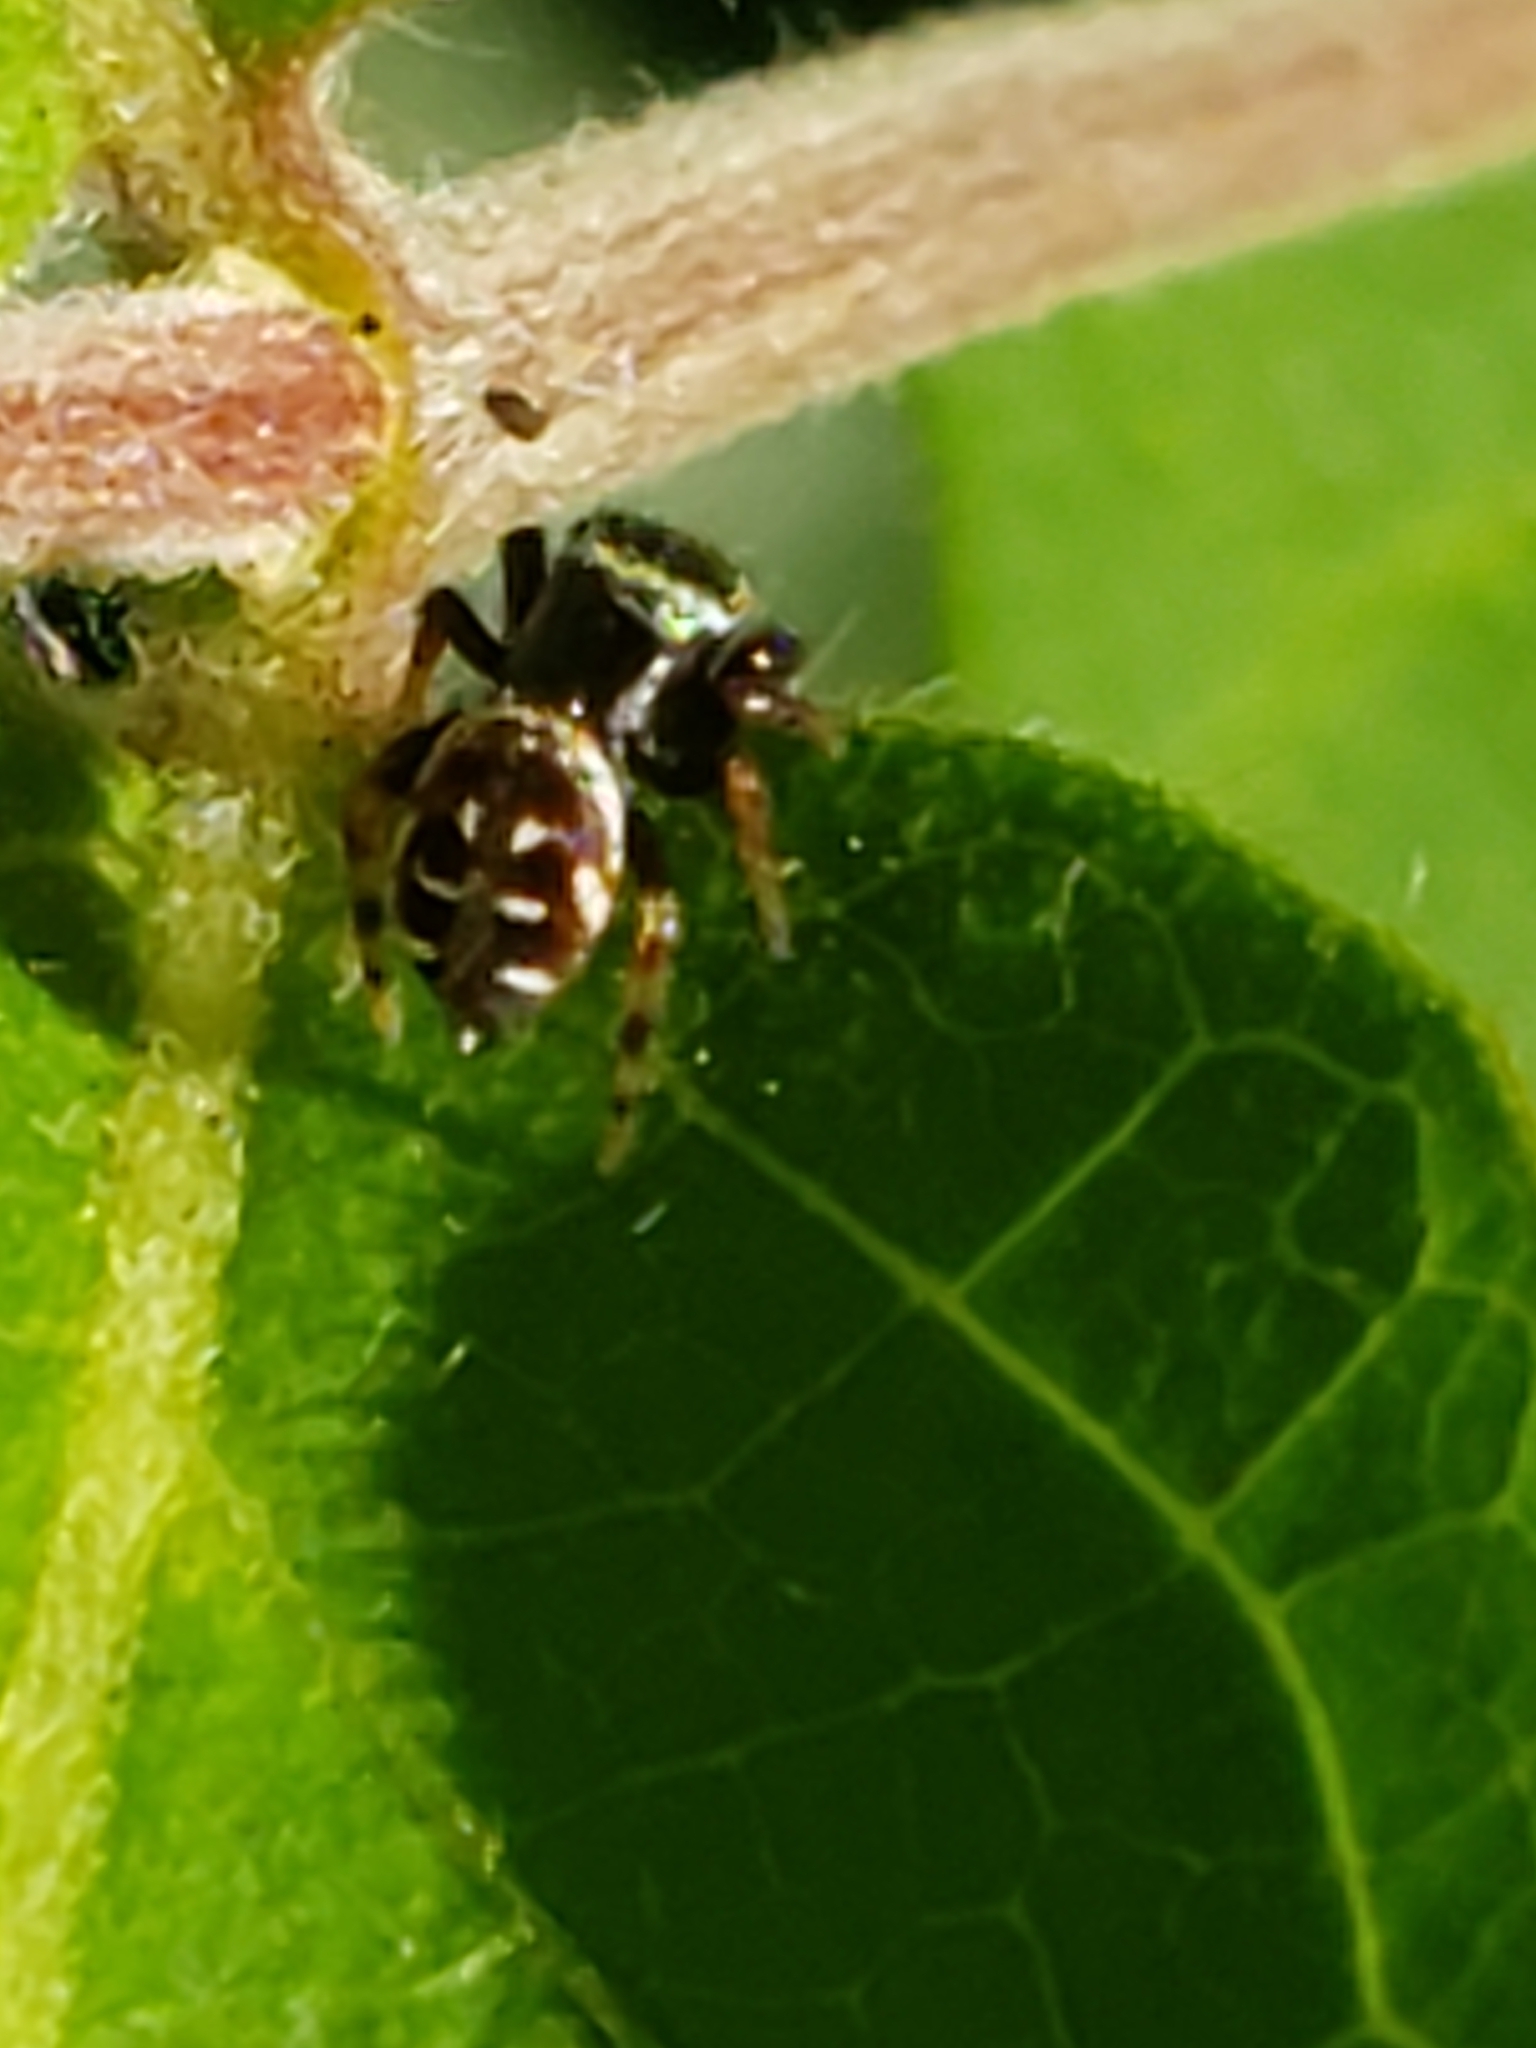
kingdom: Animalia
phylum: Arthropoda
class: Arachnida
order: Araneae
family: Salticidae
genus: Paraphidippus
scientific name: Paraphidippus aurantius
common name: Jumping spiders
